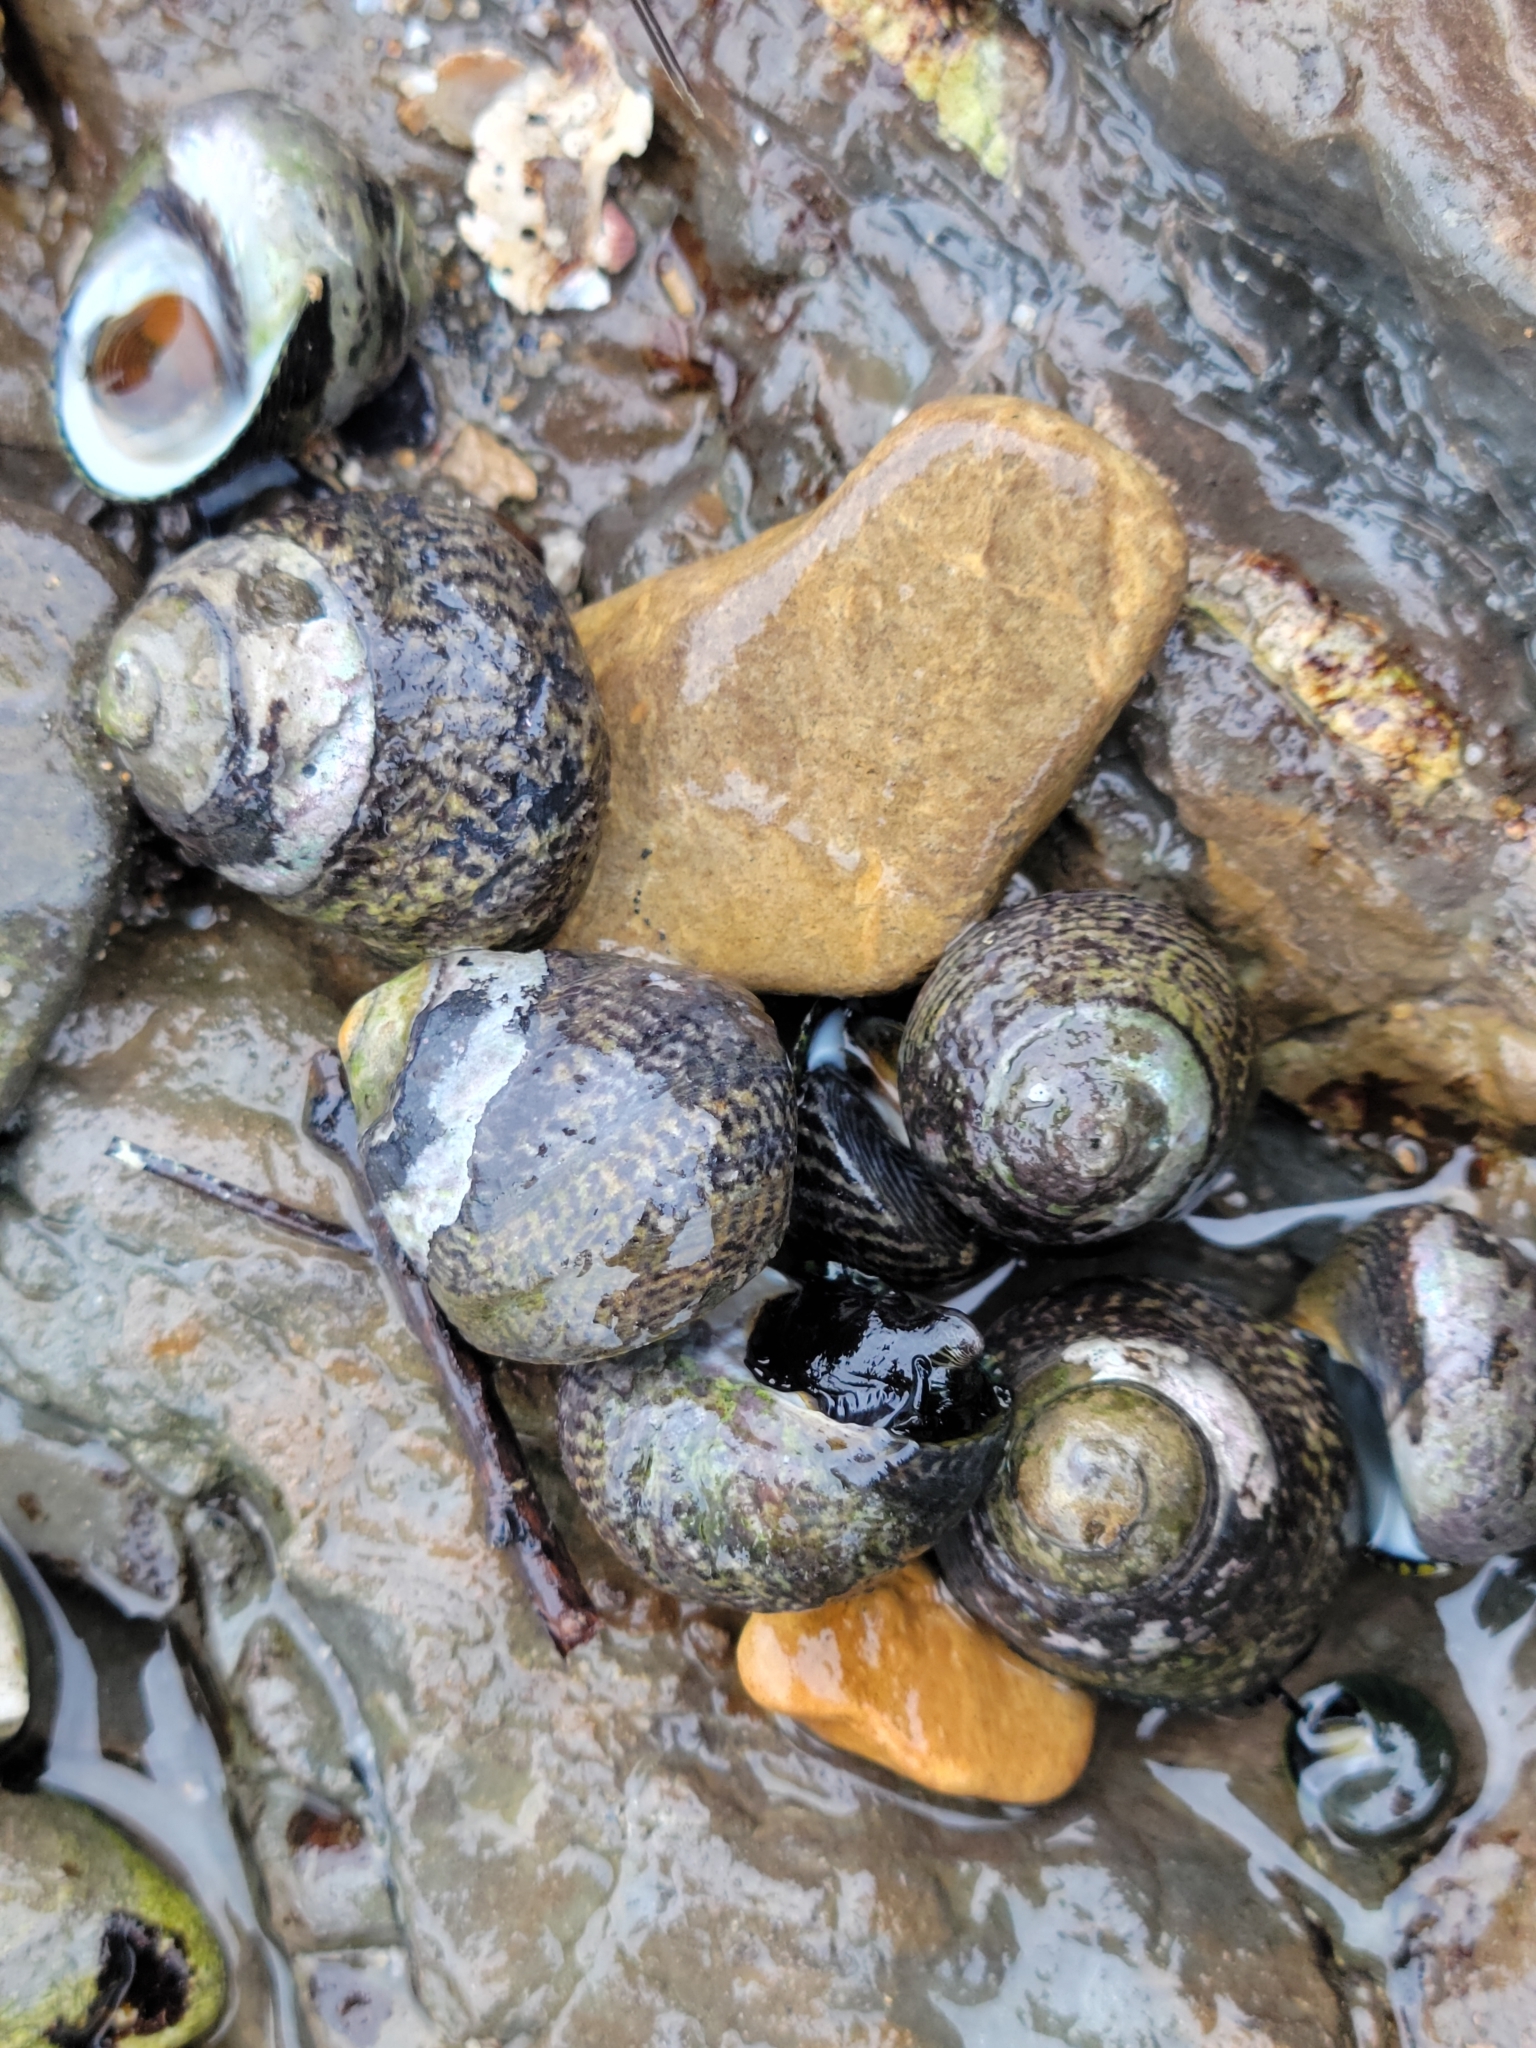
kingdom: Animalia
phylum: Mollusca
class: Gastropoda
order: Trochida
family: Tegulidae
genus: Tegula
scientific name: Tegula gallina
